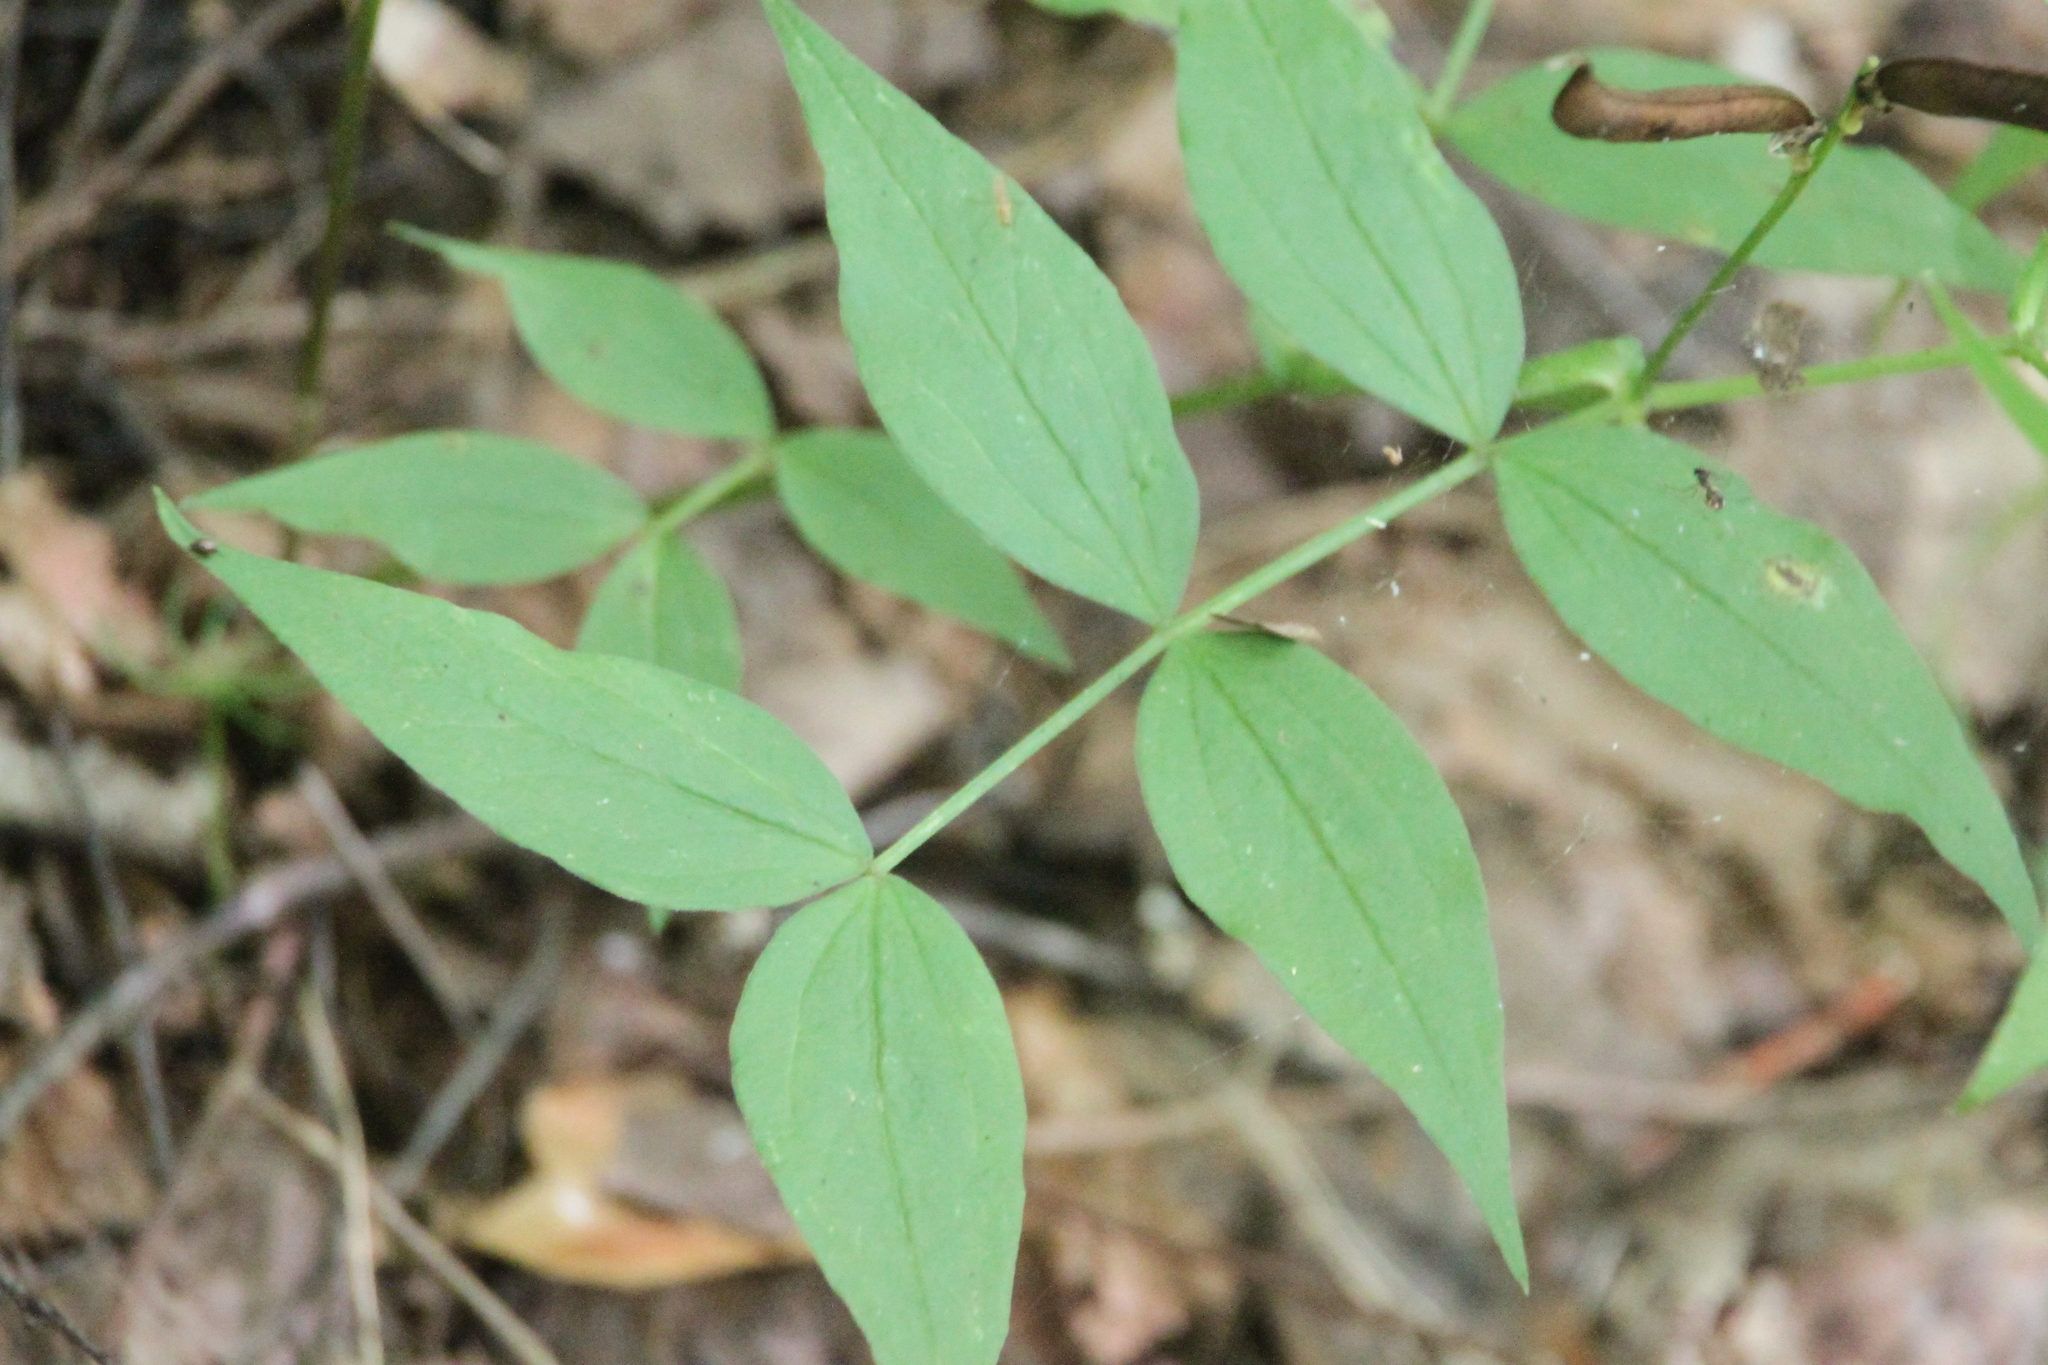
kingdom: Plantae
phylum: Tracheophyta
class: Magnoliopsida
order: Fabales
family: Fabaceae
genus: Lathyrus
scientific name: Lathyrus vernus
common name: Spring pea
